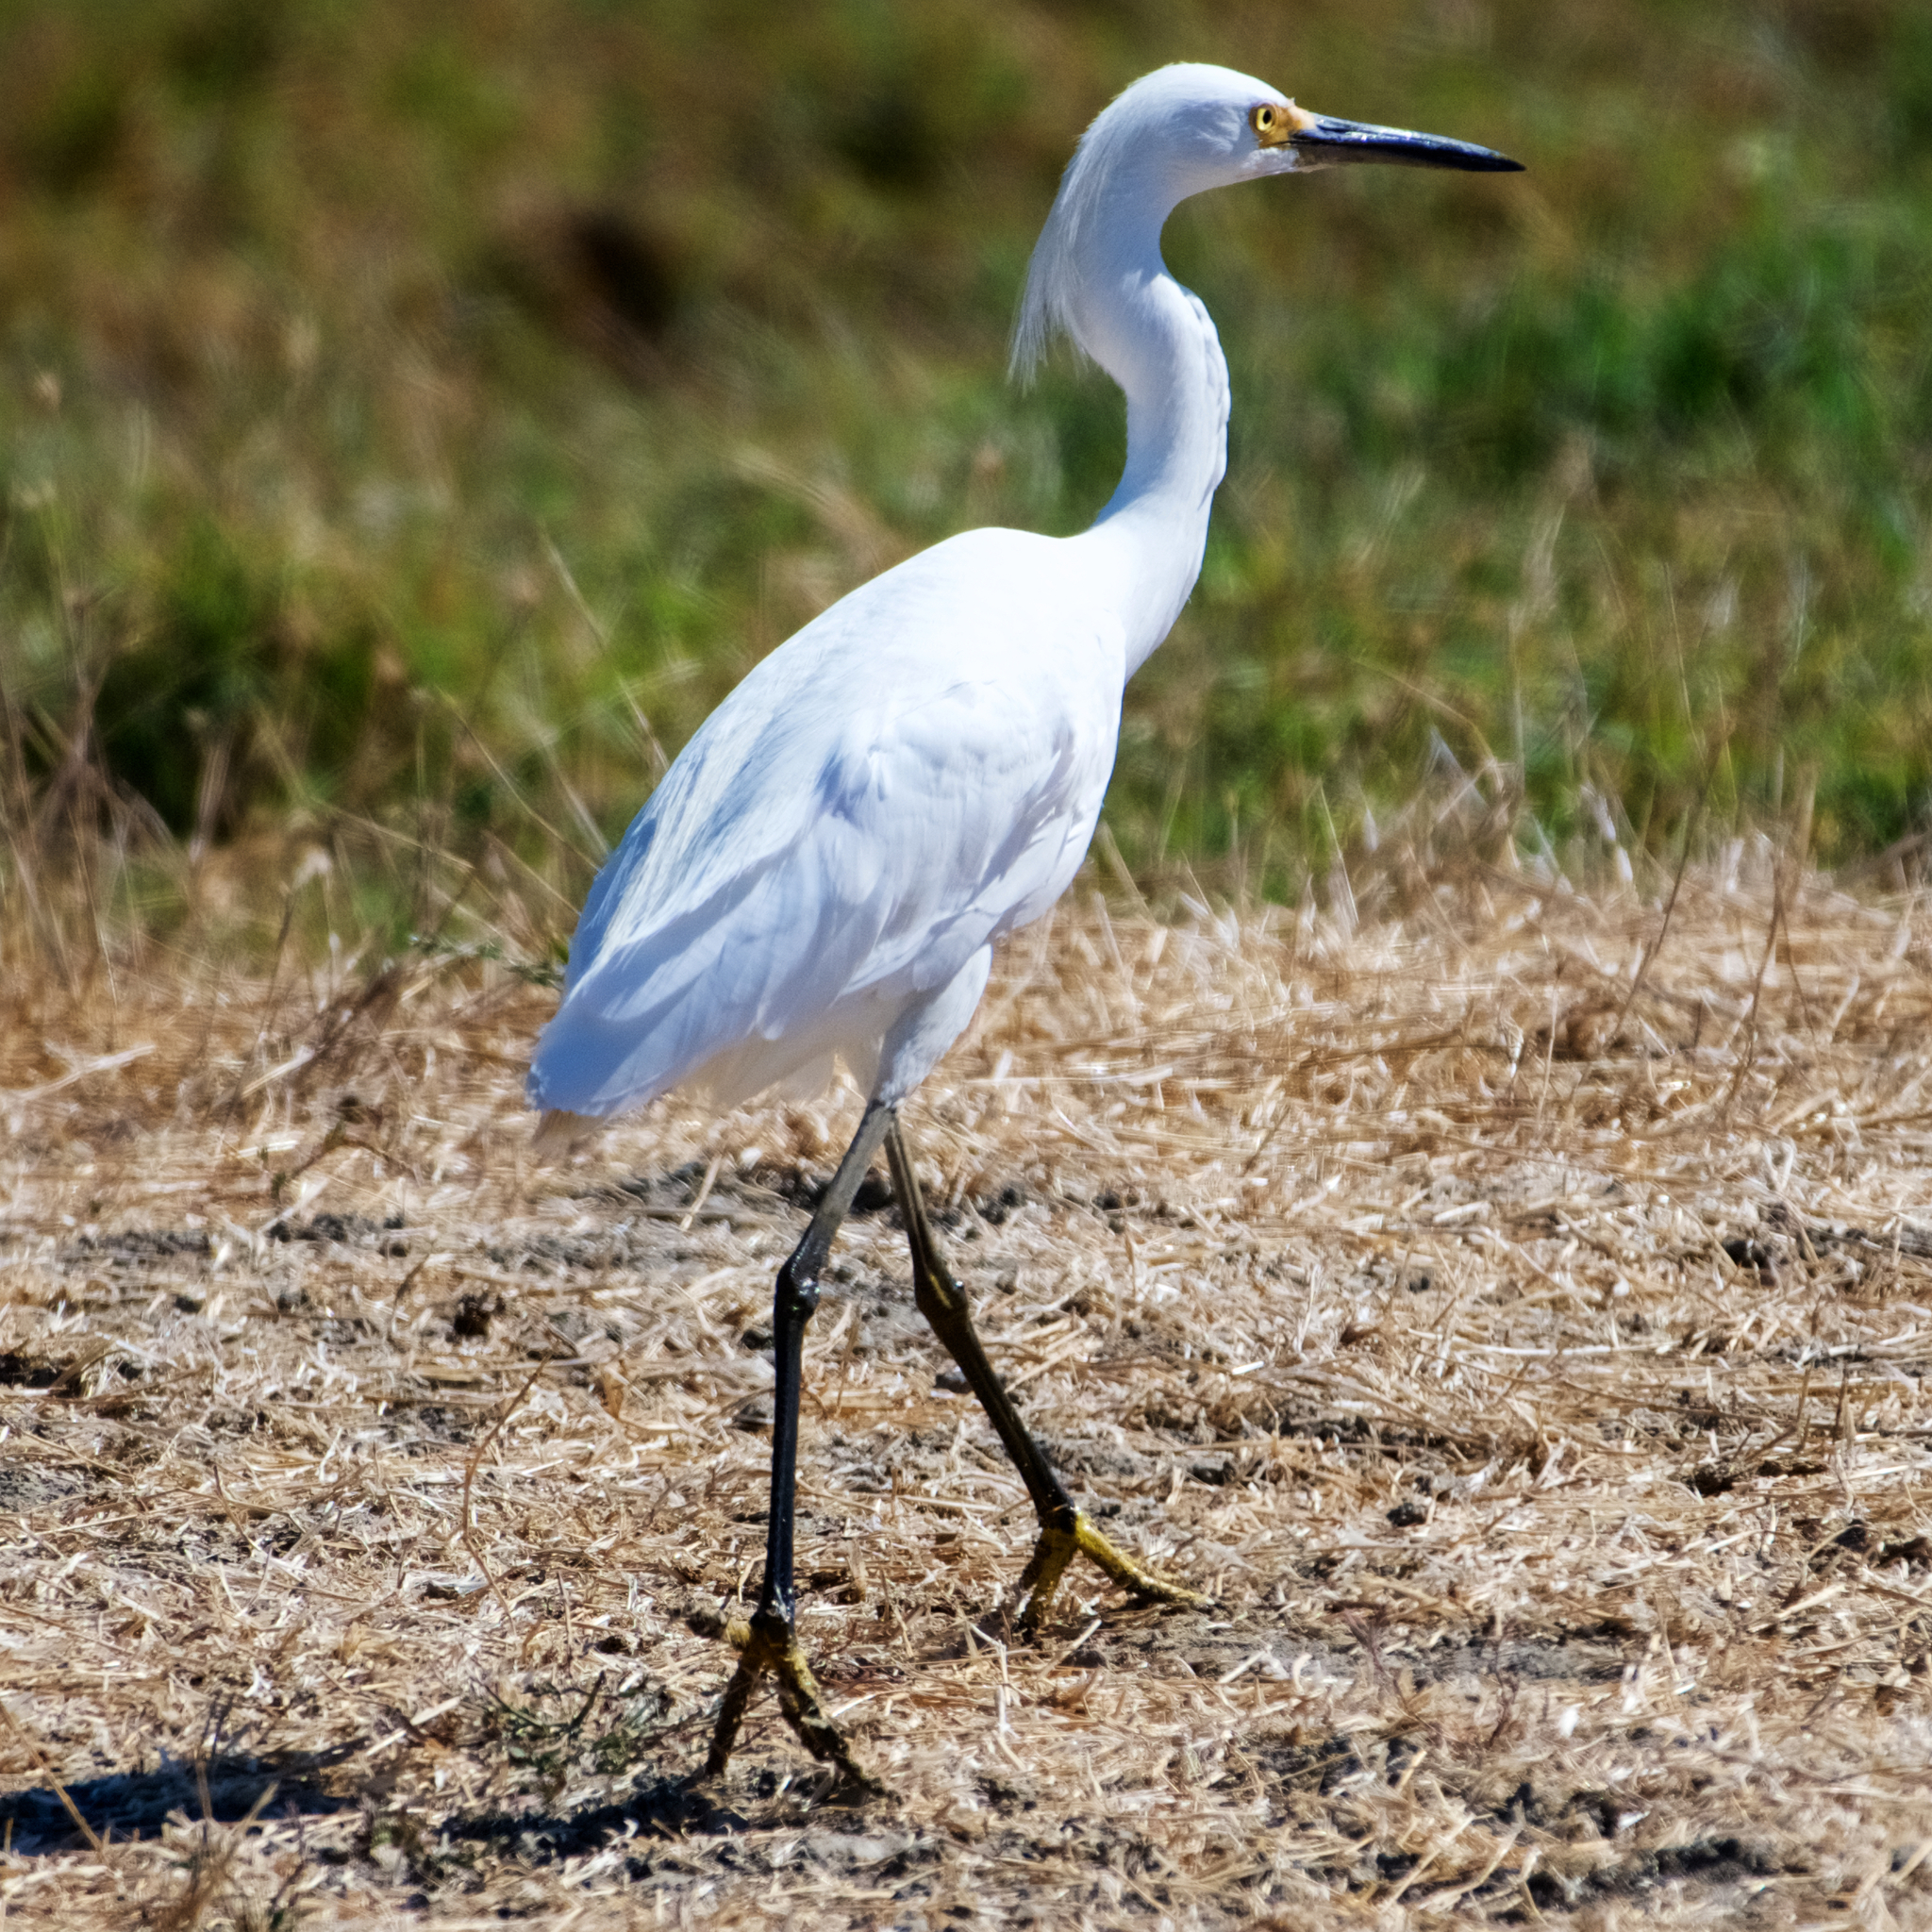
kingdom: Animalia
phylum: Chordata
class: Aves
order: Pelecaniformes
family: Ardeidae
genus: Egretta
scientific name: Egretta thula
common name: Snowy egret
